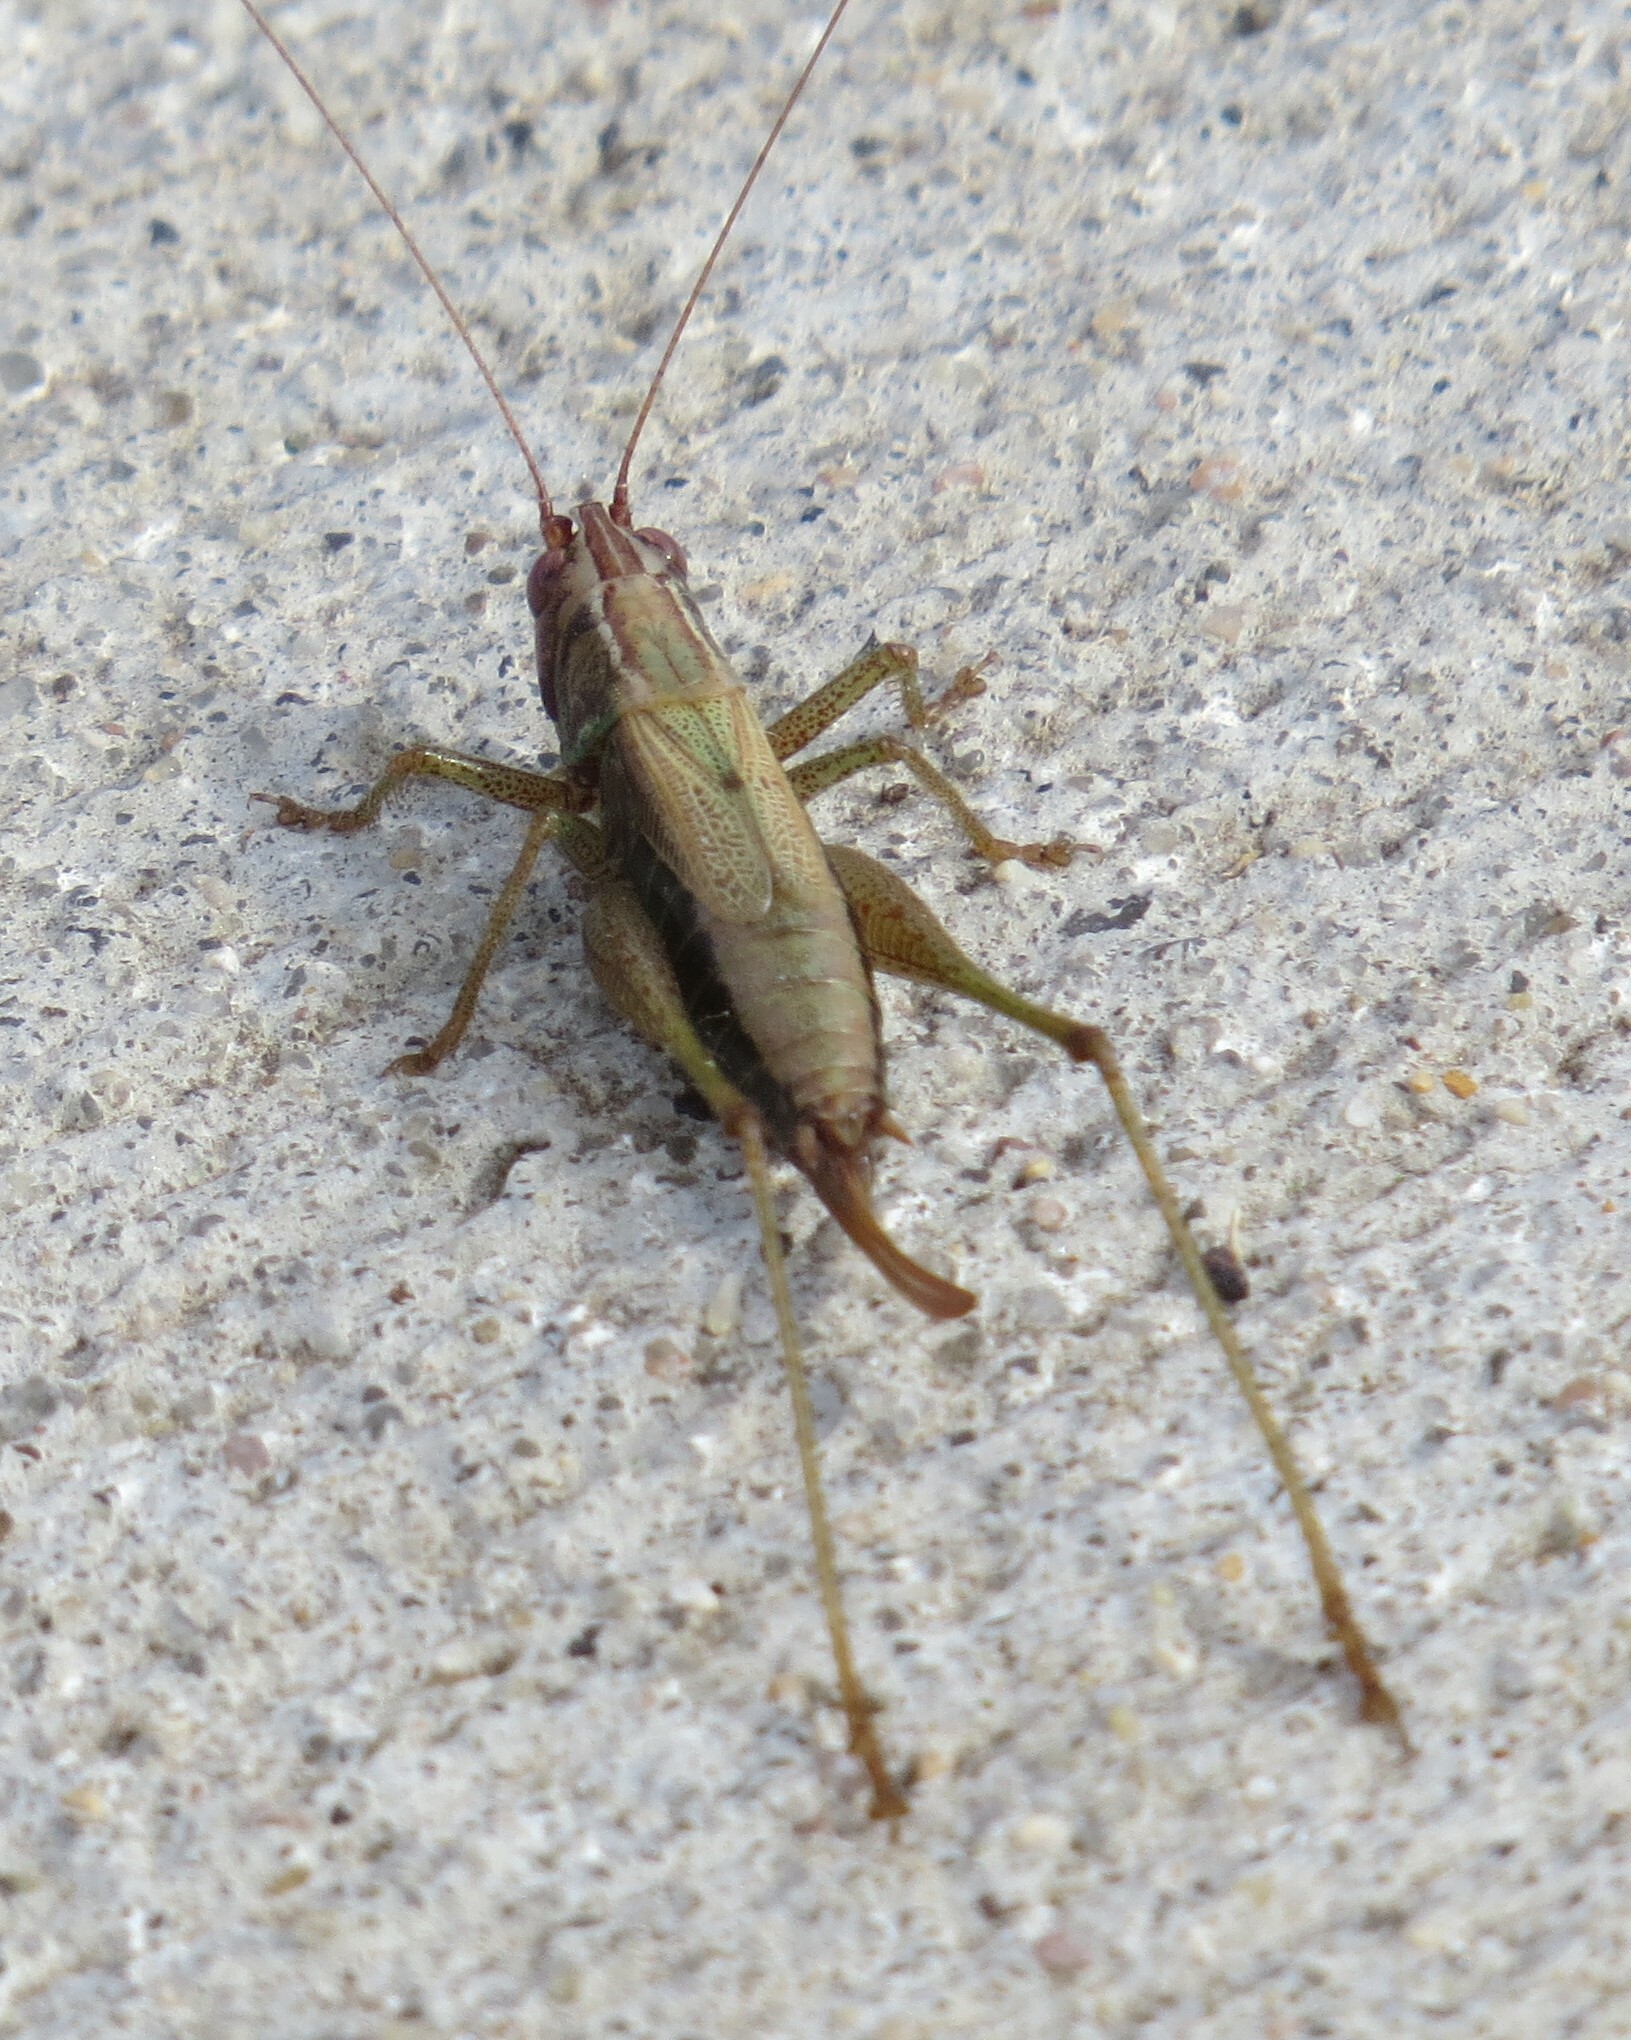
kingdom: Animalia
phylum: Arthropoda
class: Insecta
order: Orthoptera
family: Tettigoniidae
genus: Conocephalus
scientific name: Conocephalus nemoralis
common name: Woodland meadow katydid
